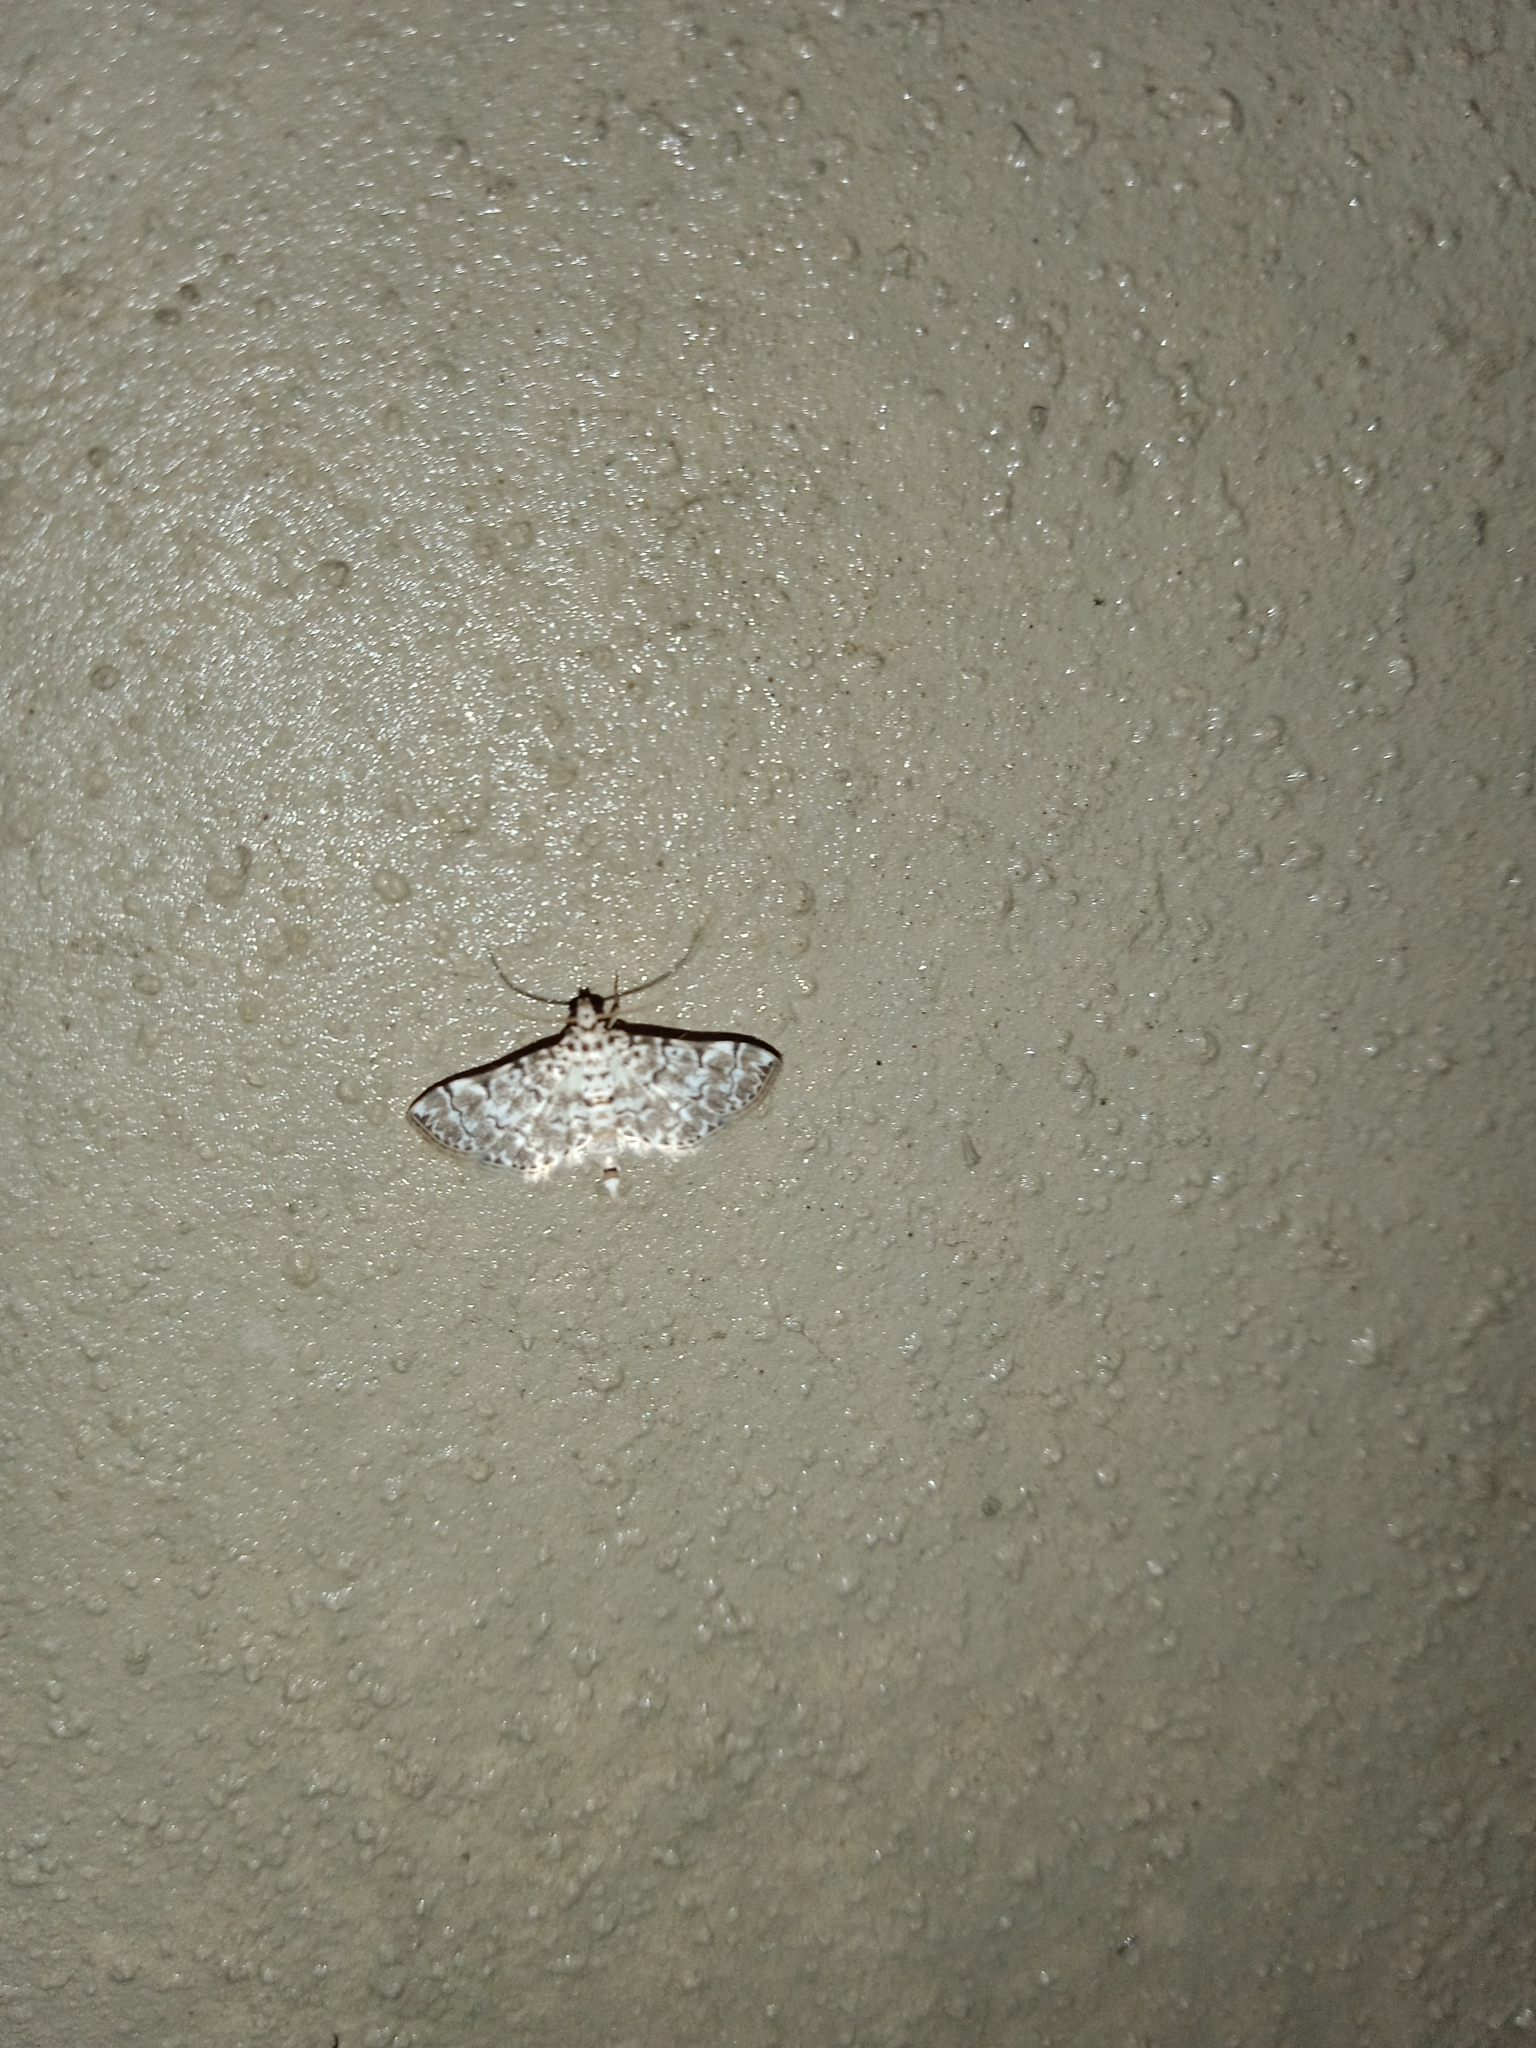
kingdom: Animalia
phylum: Arthropoda
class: Insecta
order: Lepidoptera
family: Crambidae
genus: Metoeca
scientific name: Metoeca foedalis
